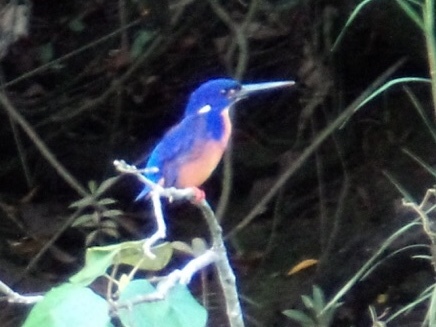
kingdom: Animalia
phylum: Chordata
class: Aves
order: Coraciiformes
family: Alcedinidae
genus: Ceyx
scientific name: Ceyx azureus
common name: Azure kingfisher
